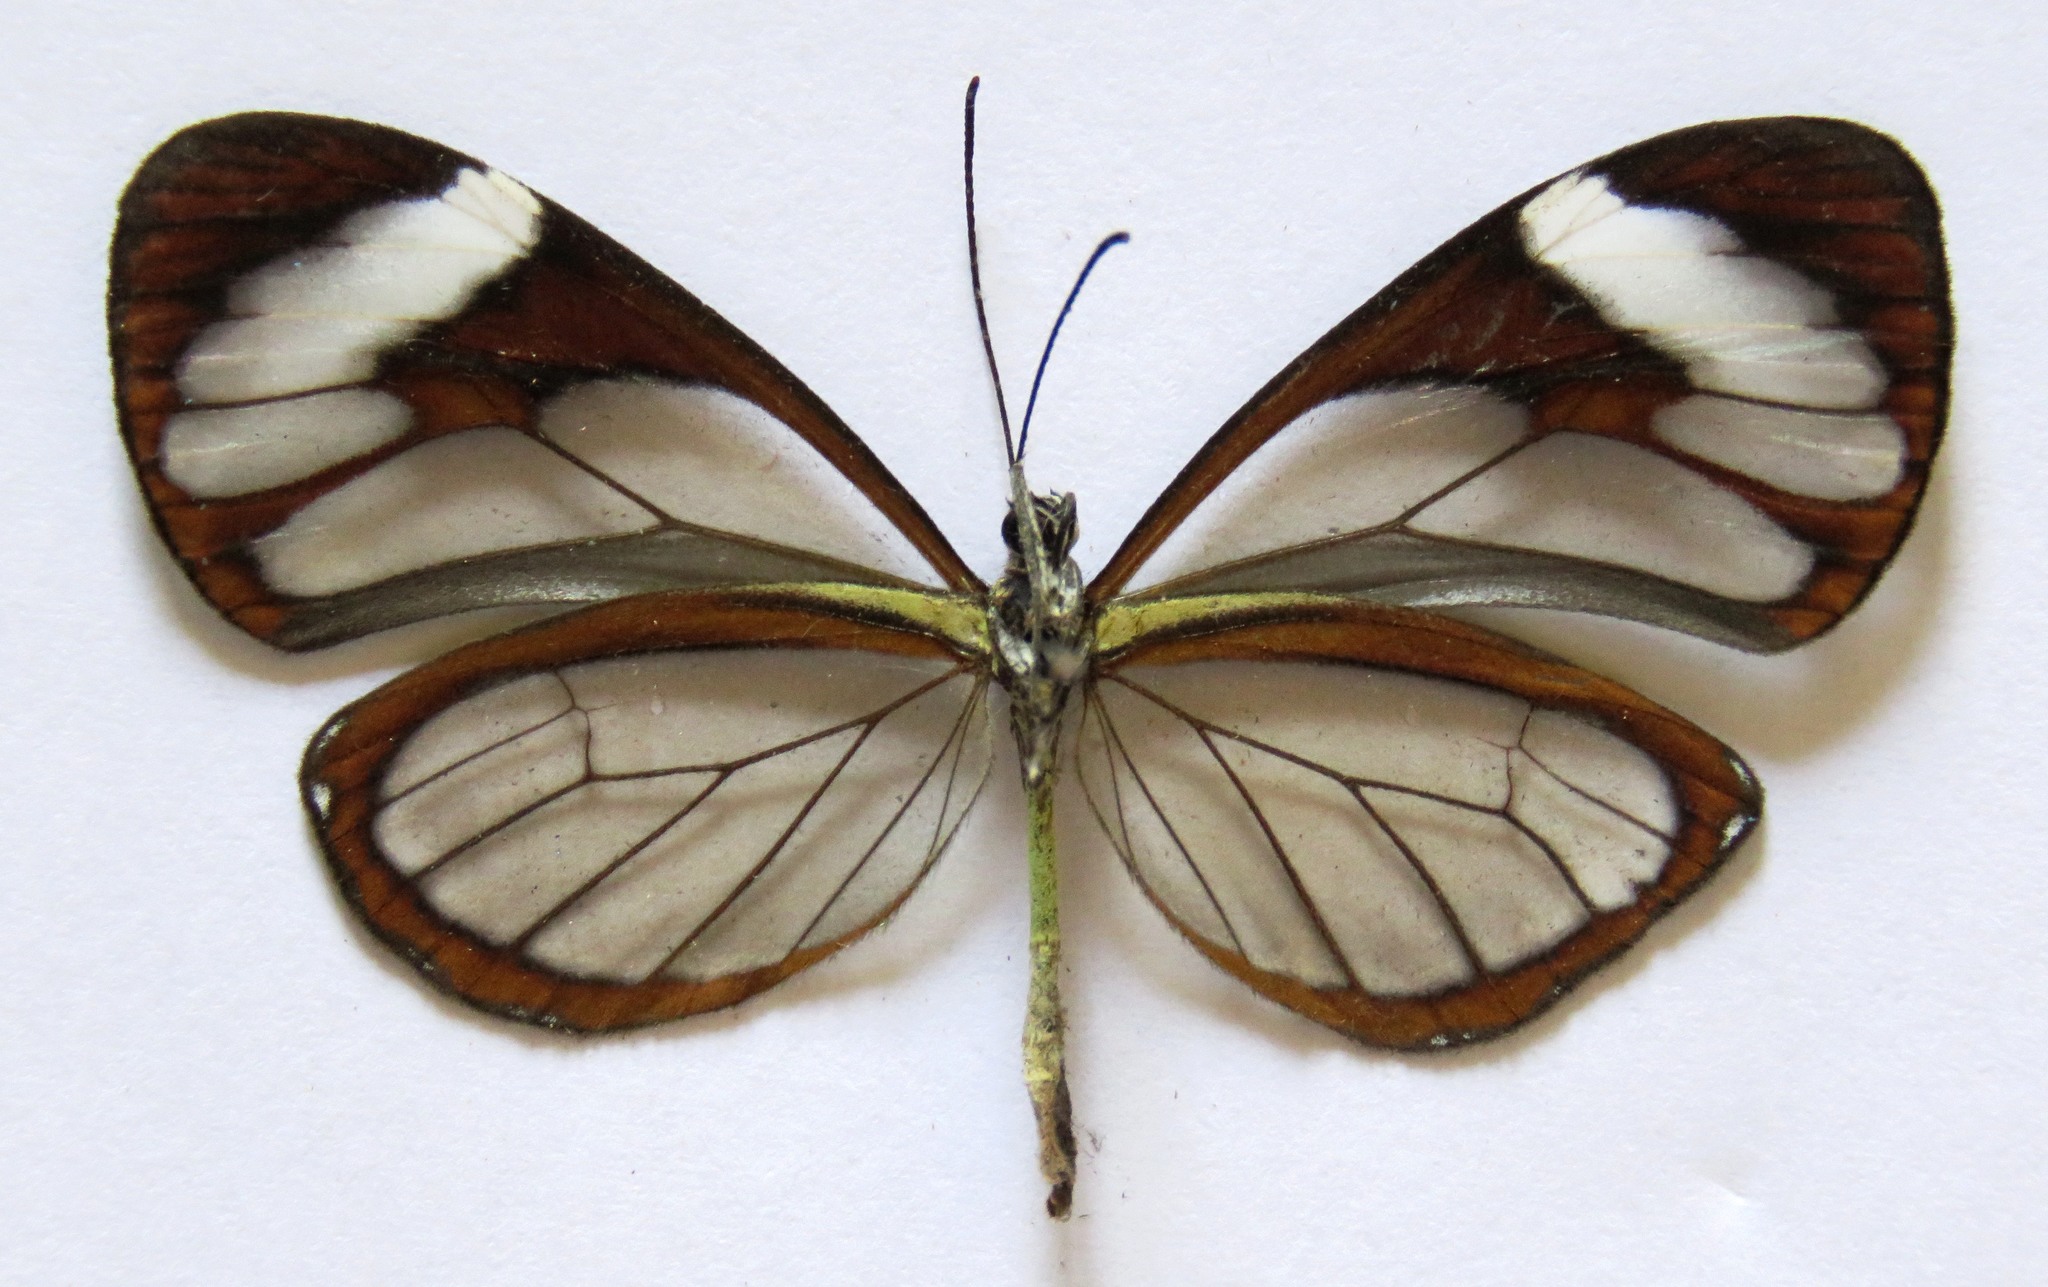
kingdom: Animalia
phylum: Arthropoda
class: Insecta
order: Lepidoptera
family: Nymphalidae
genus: Ithomia
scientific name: Ithomia patilla
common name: Patilla clearwing
